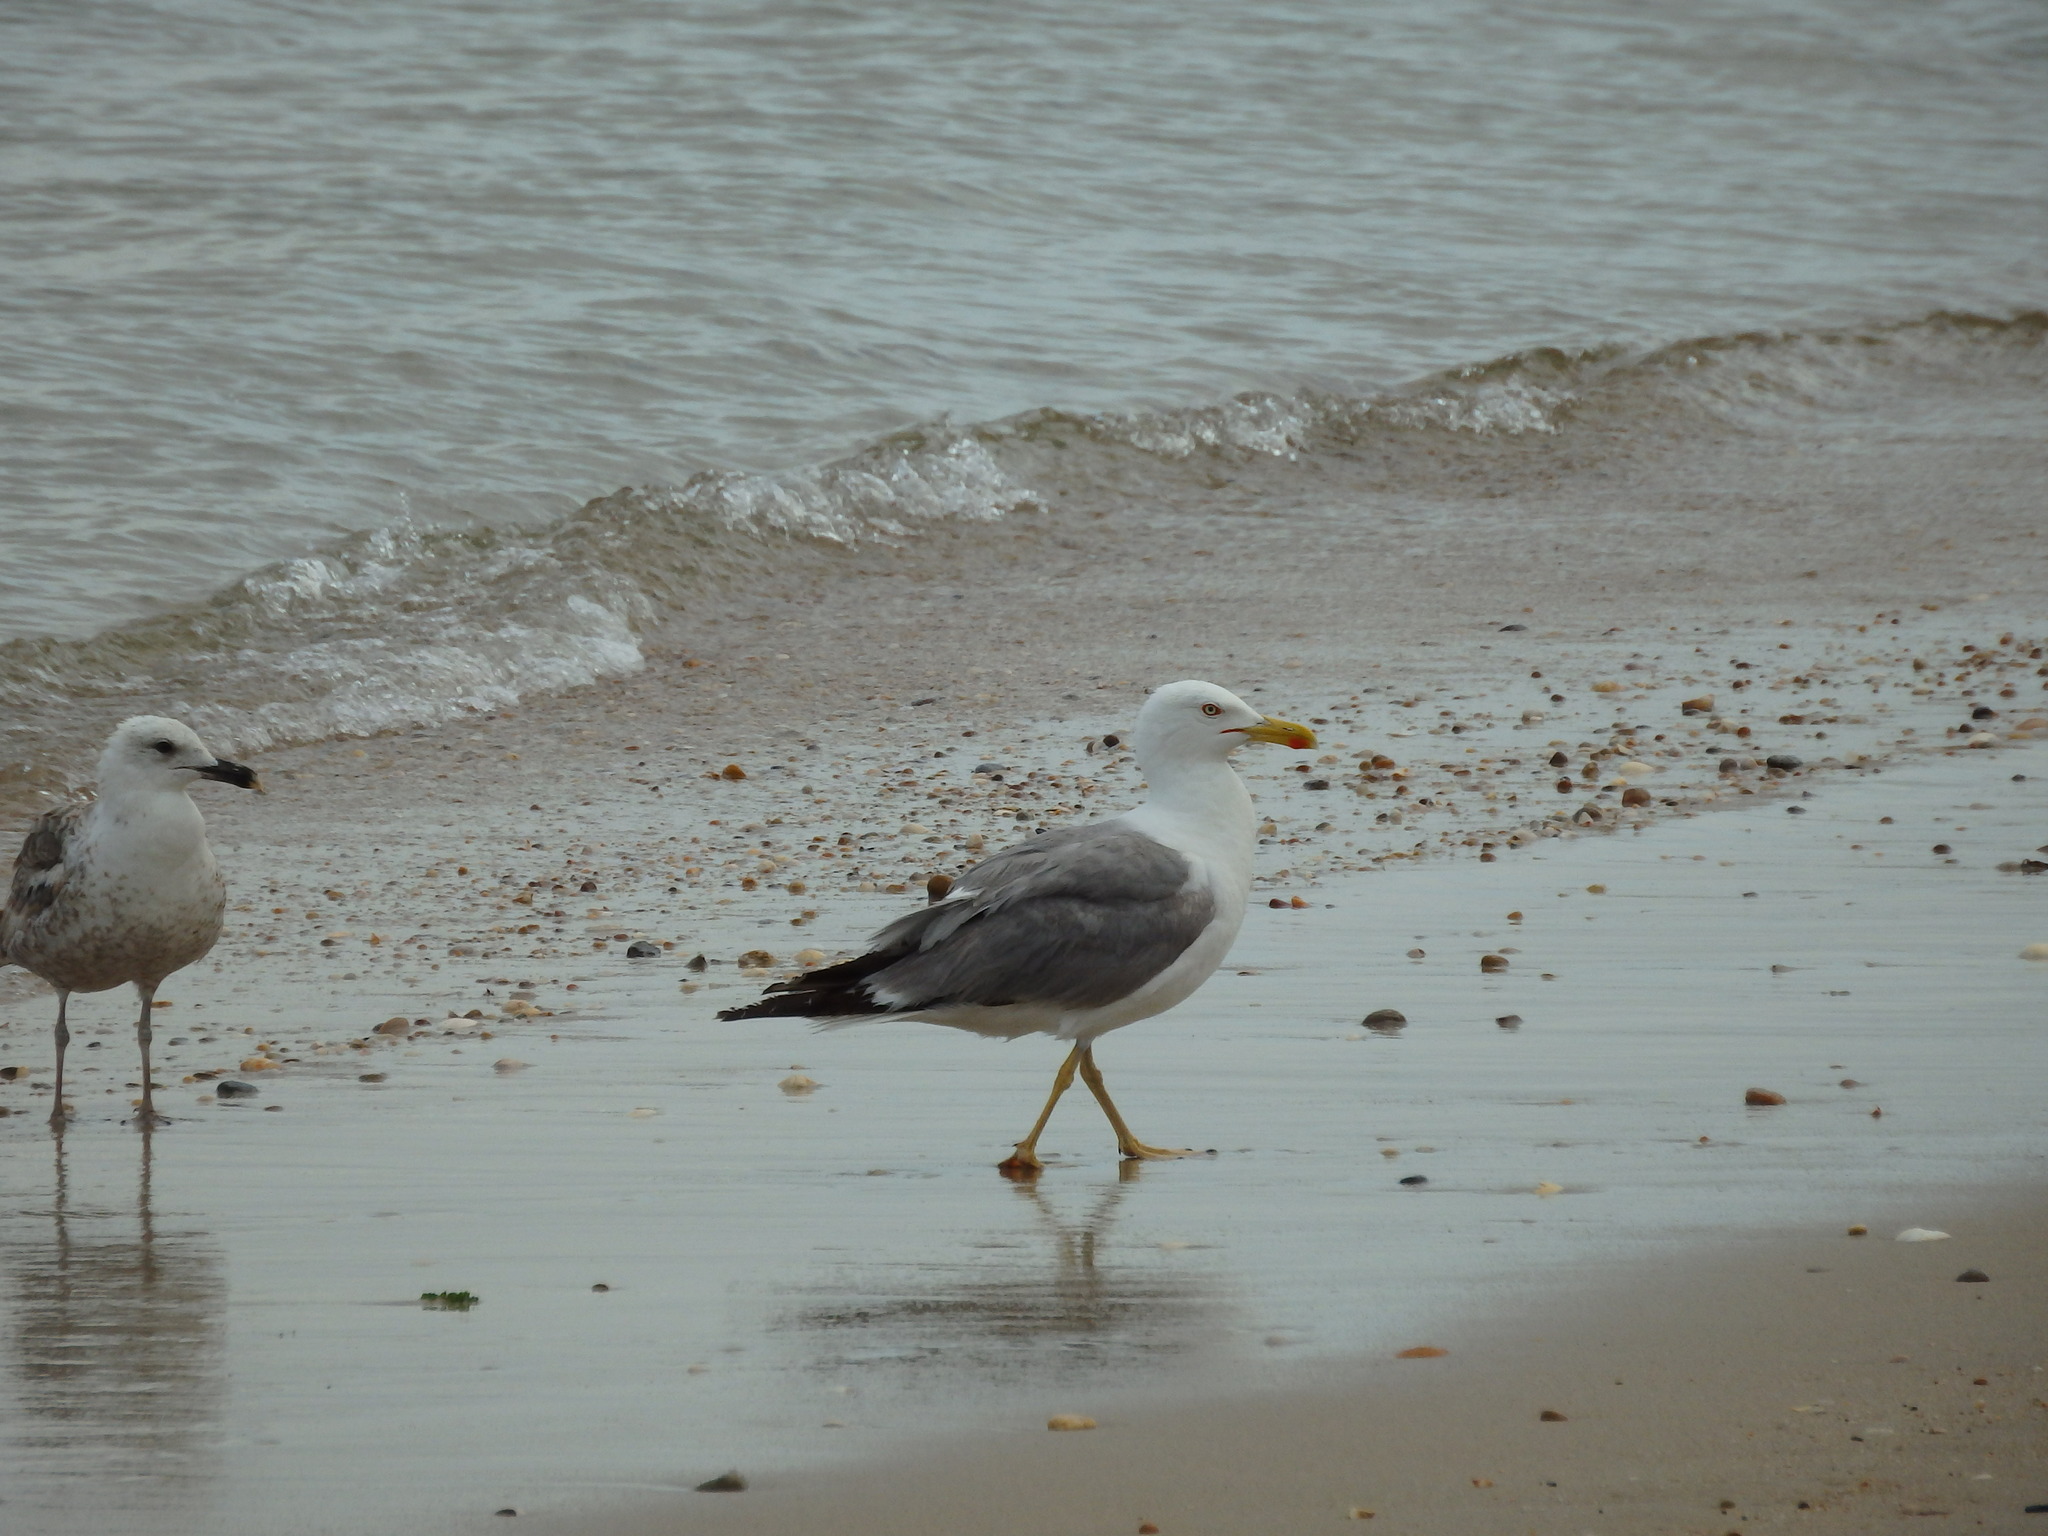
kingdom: Animalia
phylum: Chordata
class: Aves
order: Charadriiformes
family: Laridae
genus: Larus
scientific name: Larus michahellis
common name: Yellow-legged gull
